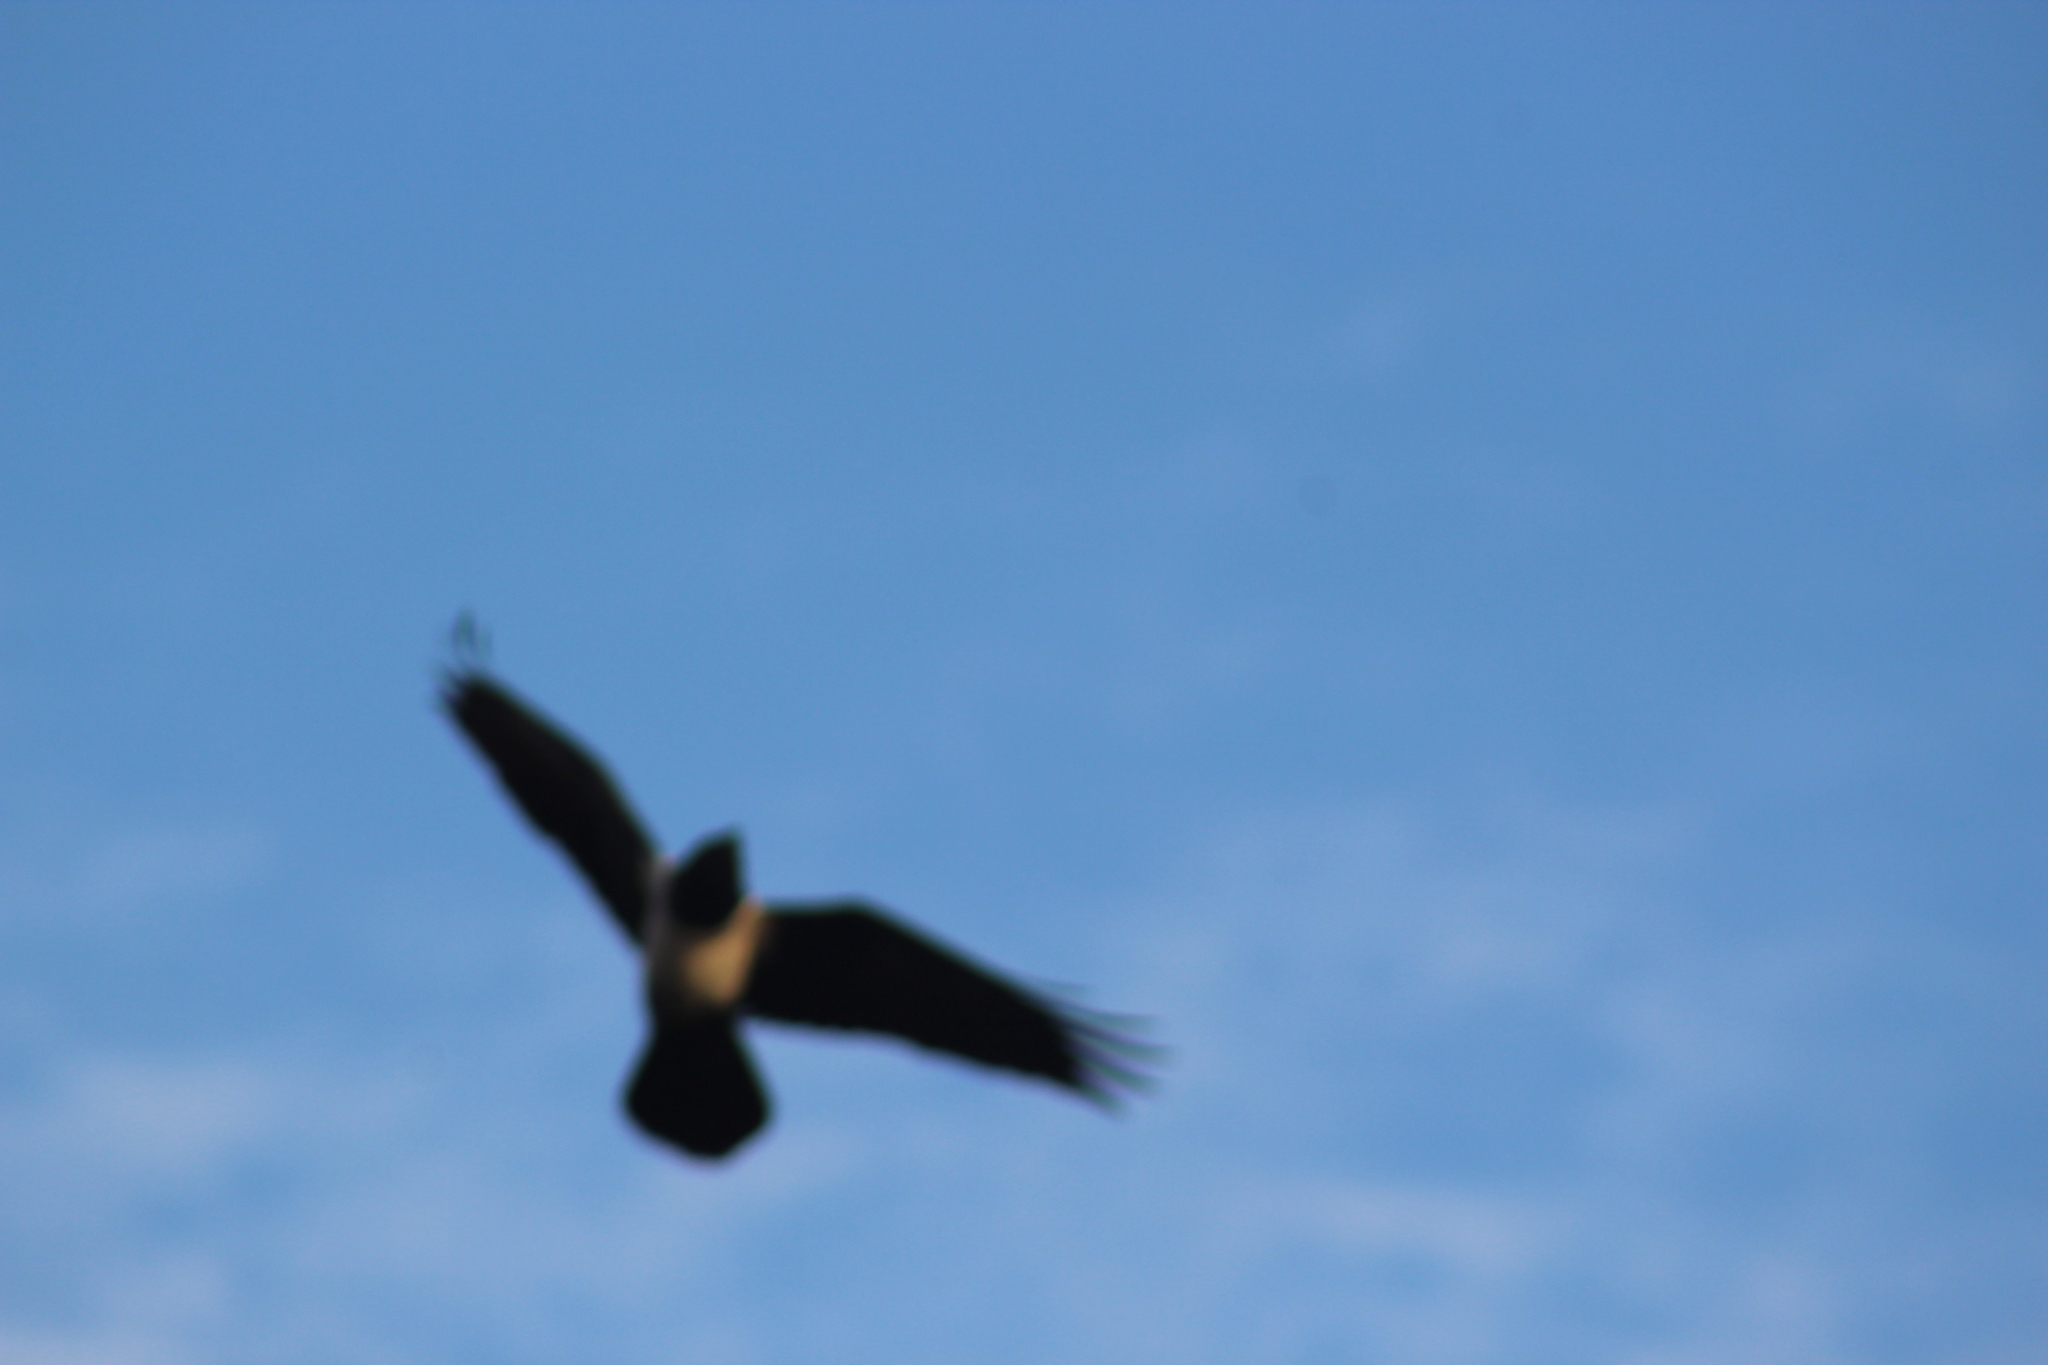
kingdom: Animalia
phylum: Chordata
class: Aves
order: Passeriformes
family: Corvidae
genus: Corvus
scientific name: Corvus albus
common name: Pied crow
